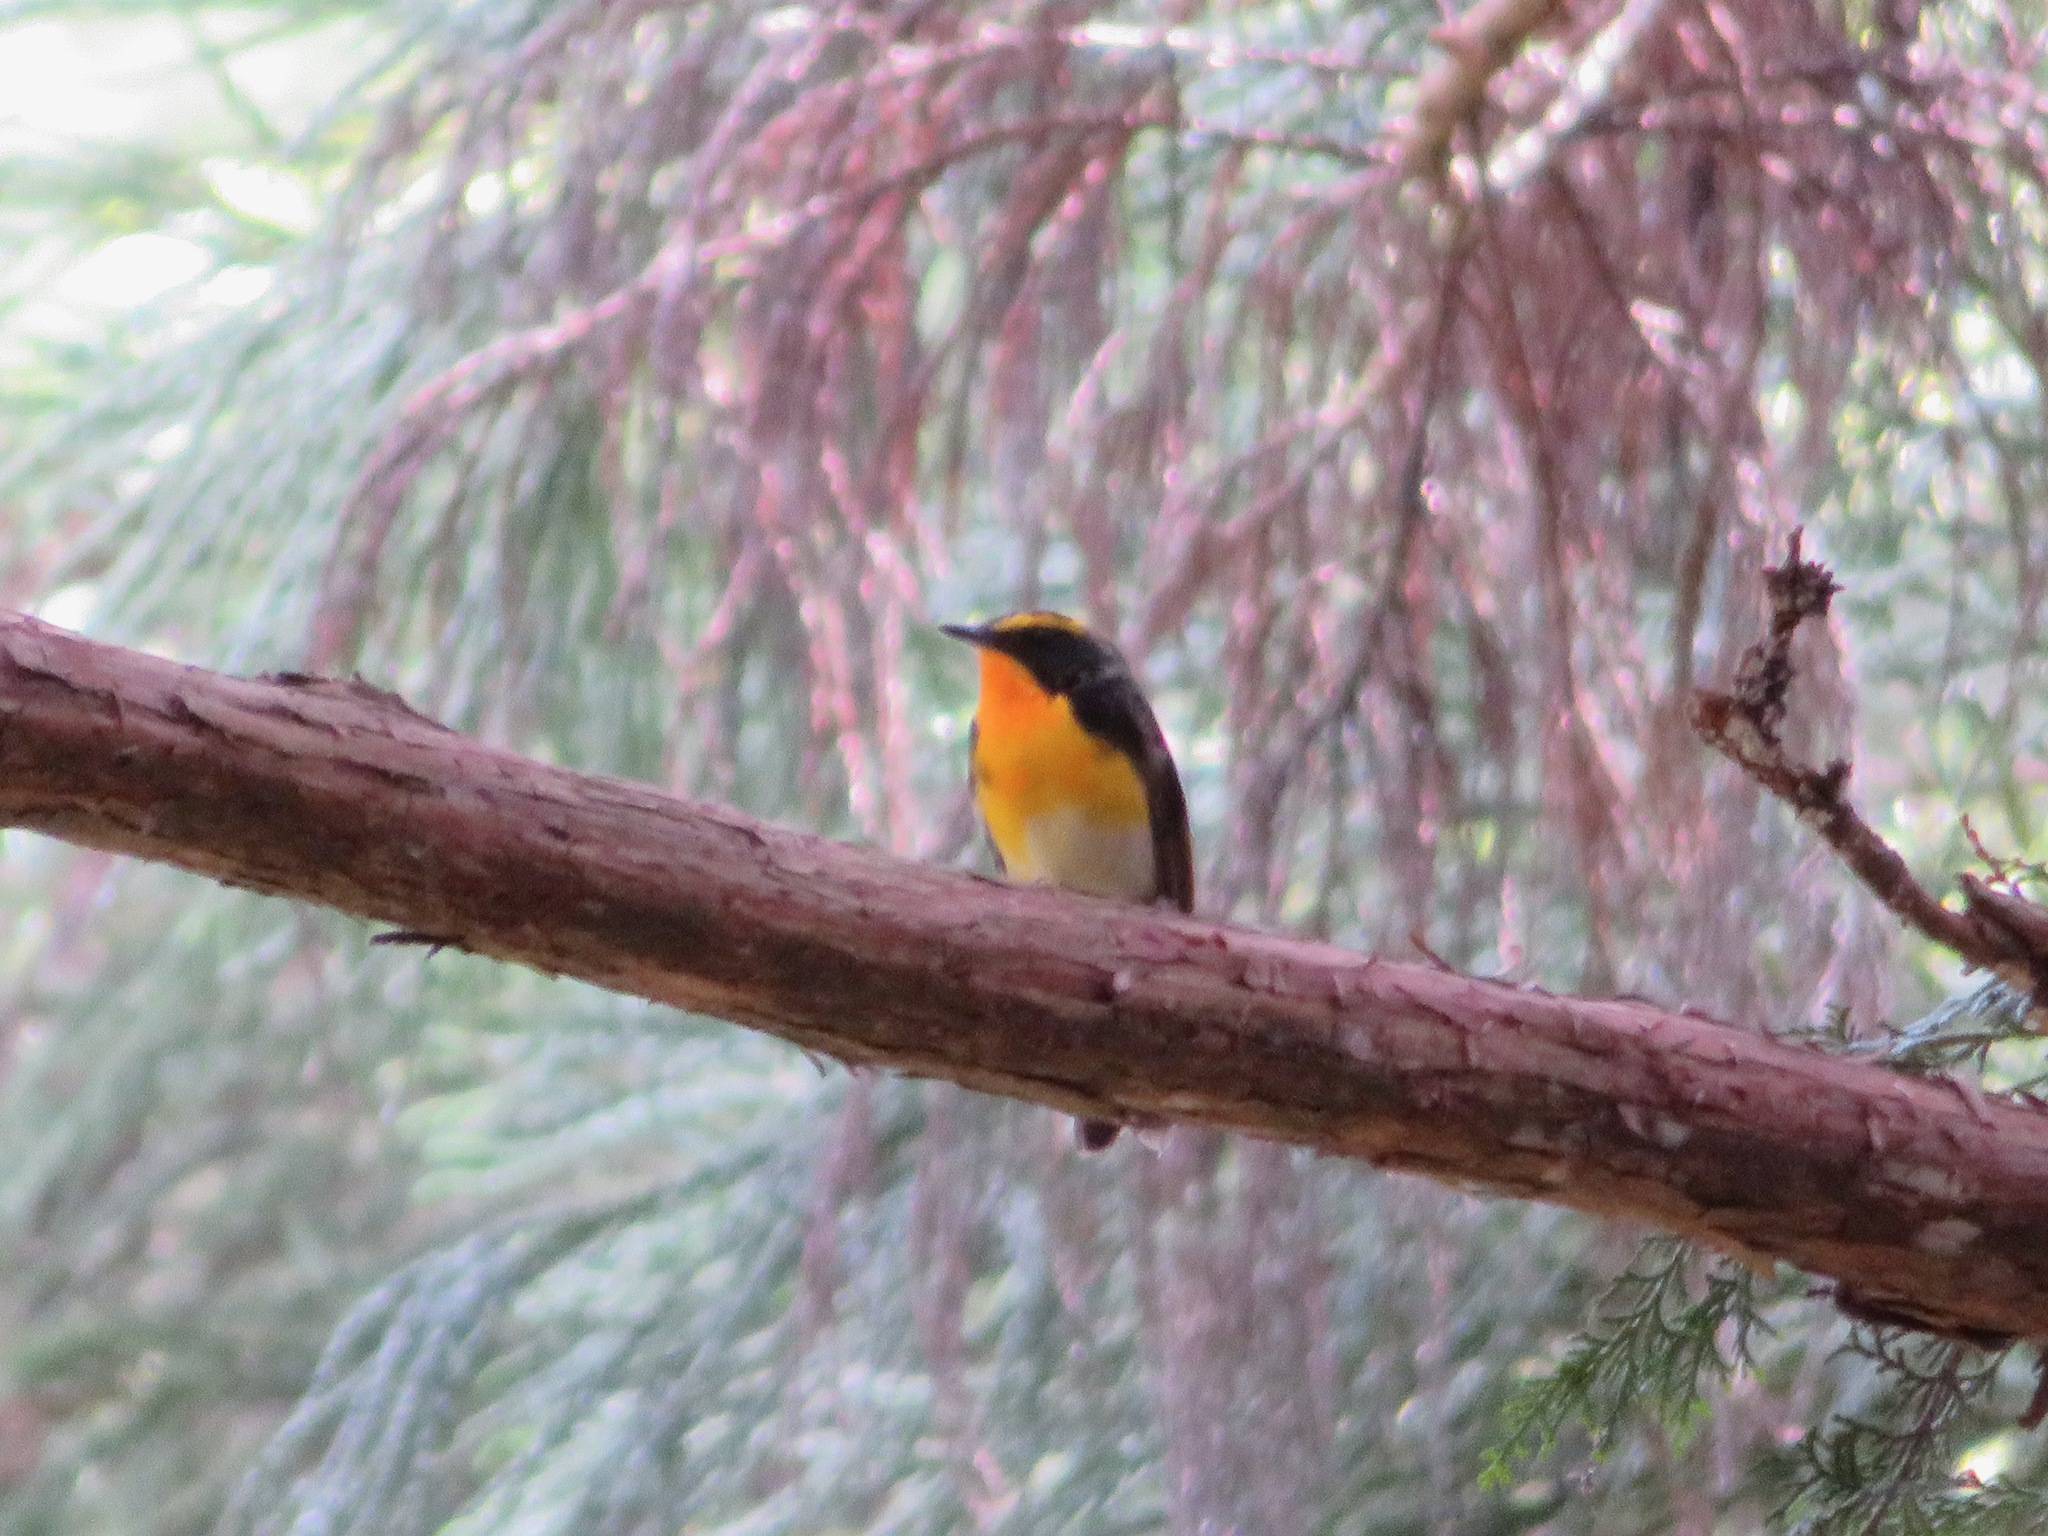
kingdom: Animalia
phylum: Chordata
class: Aves
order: Passeriformes
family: Muscicapidae
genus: Ficedula
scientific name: Ficedula narcissina
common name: Narcissus flycatcher
